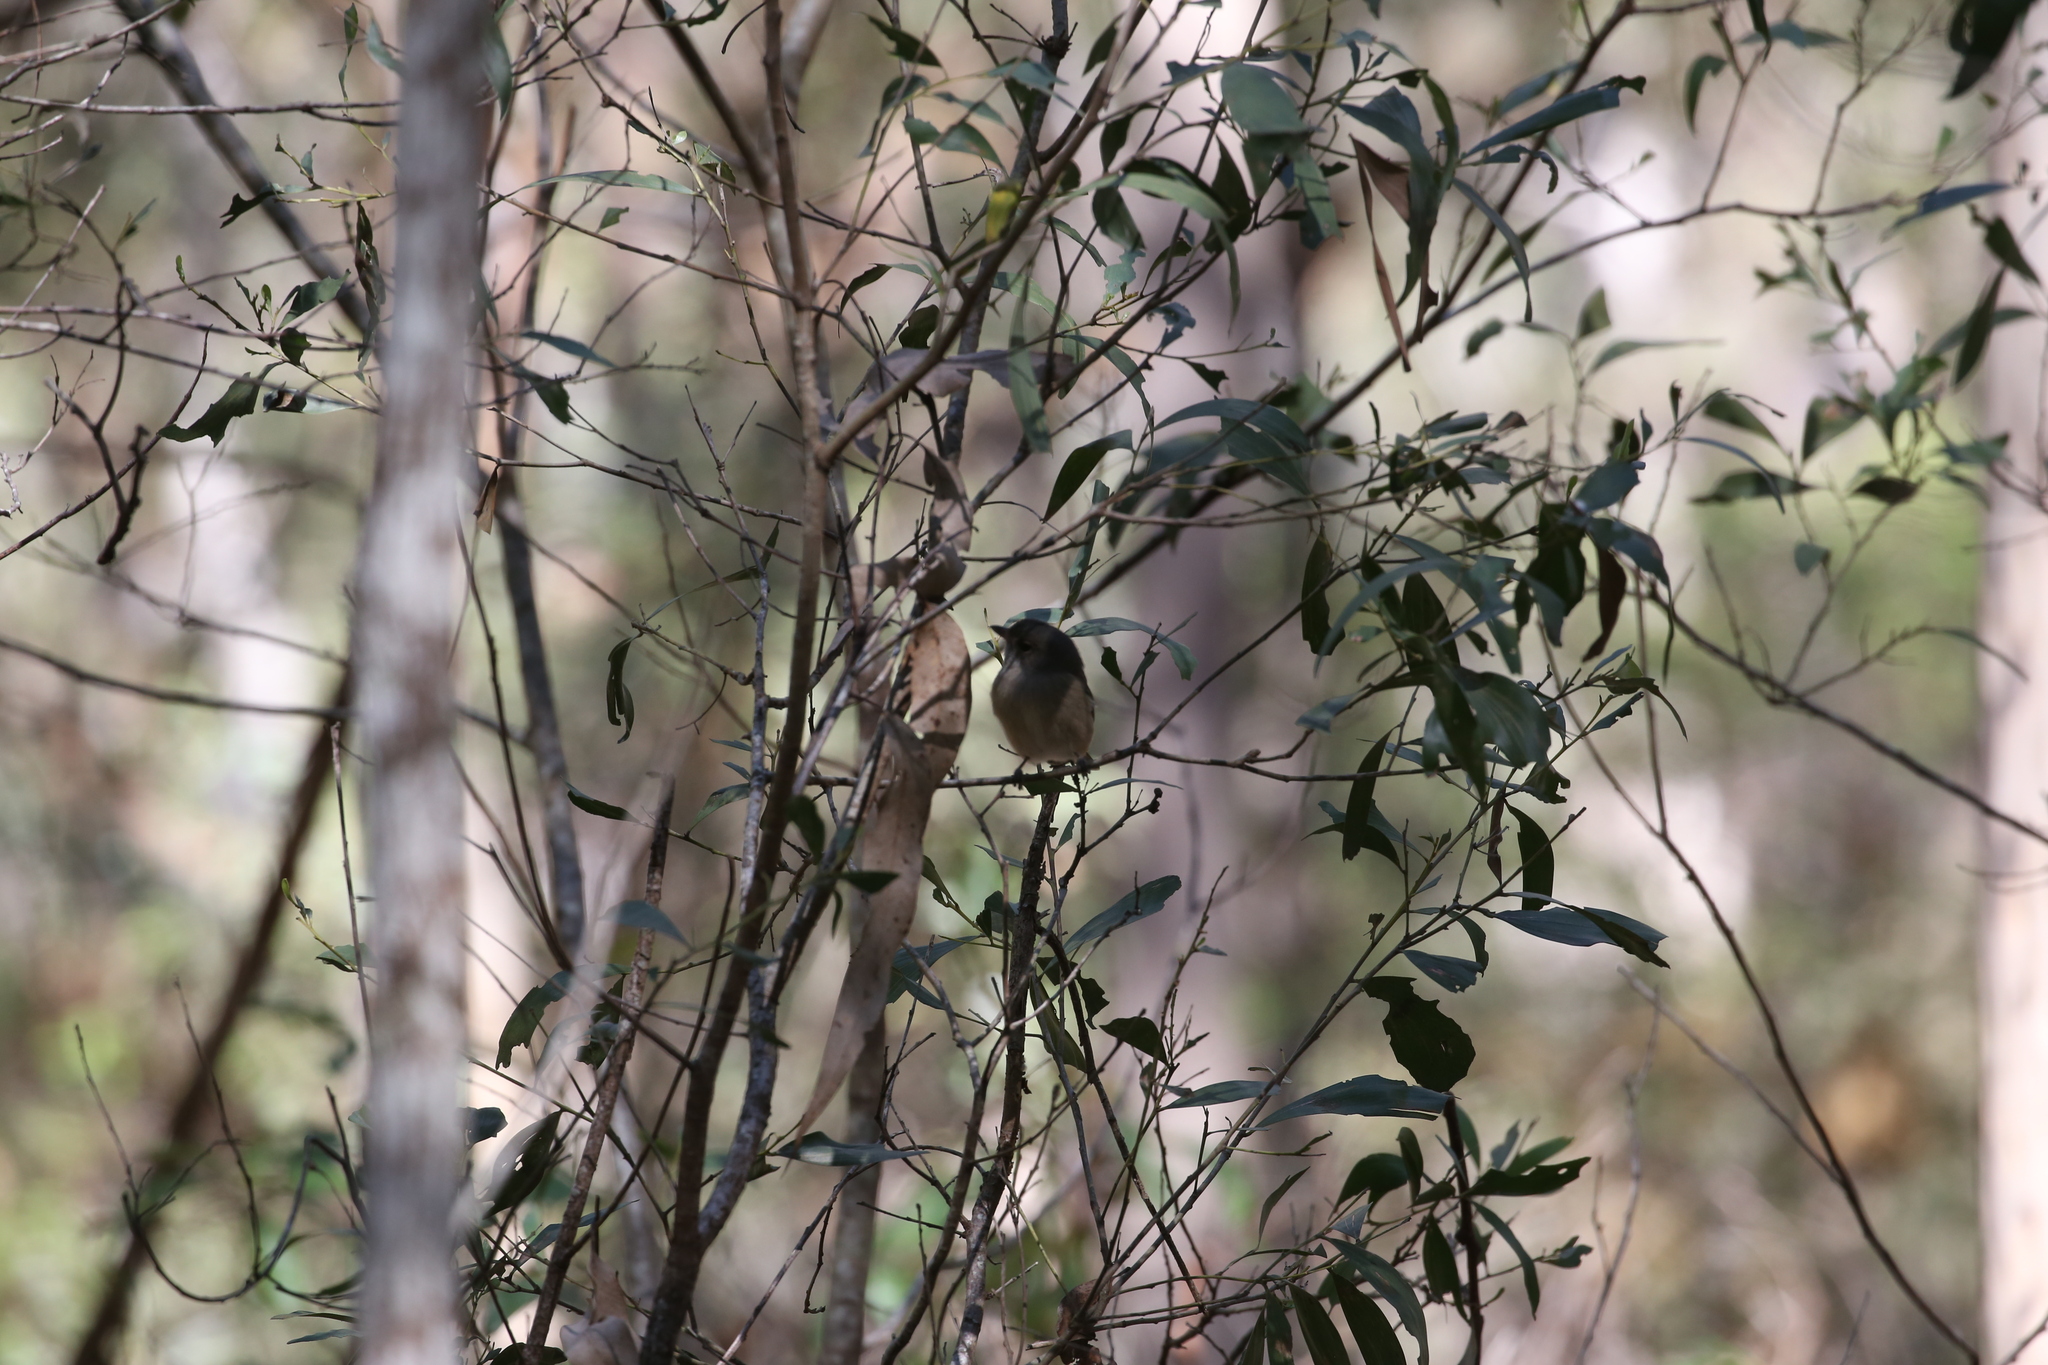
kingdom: Animalia
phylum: Chordata
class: Aves
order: Passeriformes
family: Pachycephalidae
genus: Pachycephala
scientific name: Pachycephala pectoralis
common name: Australian golden whistler
